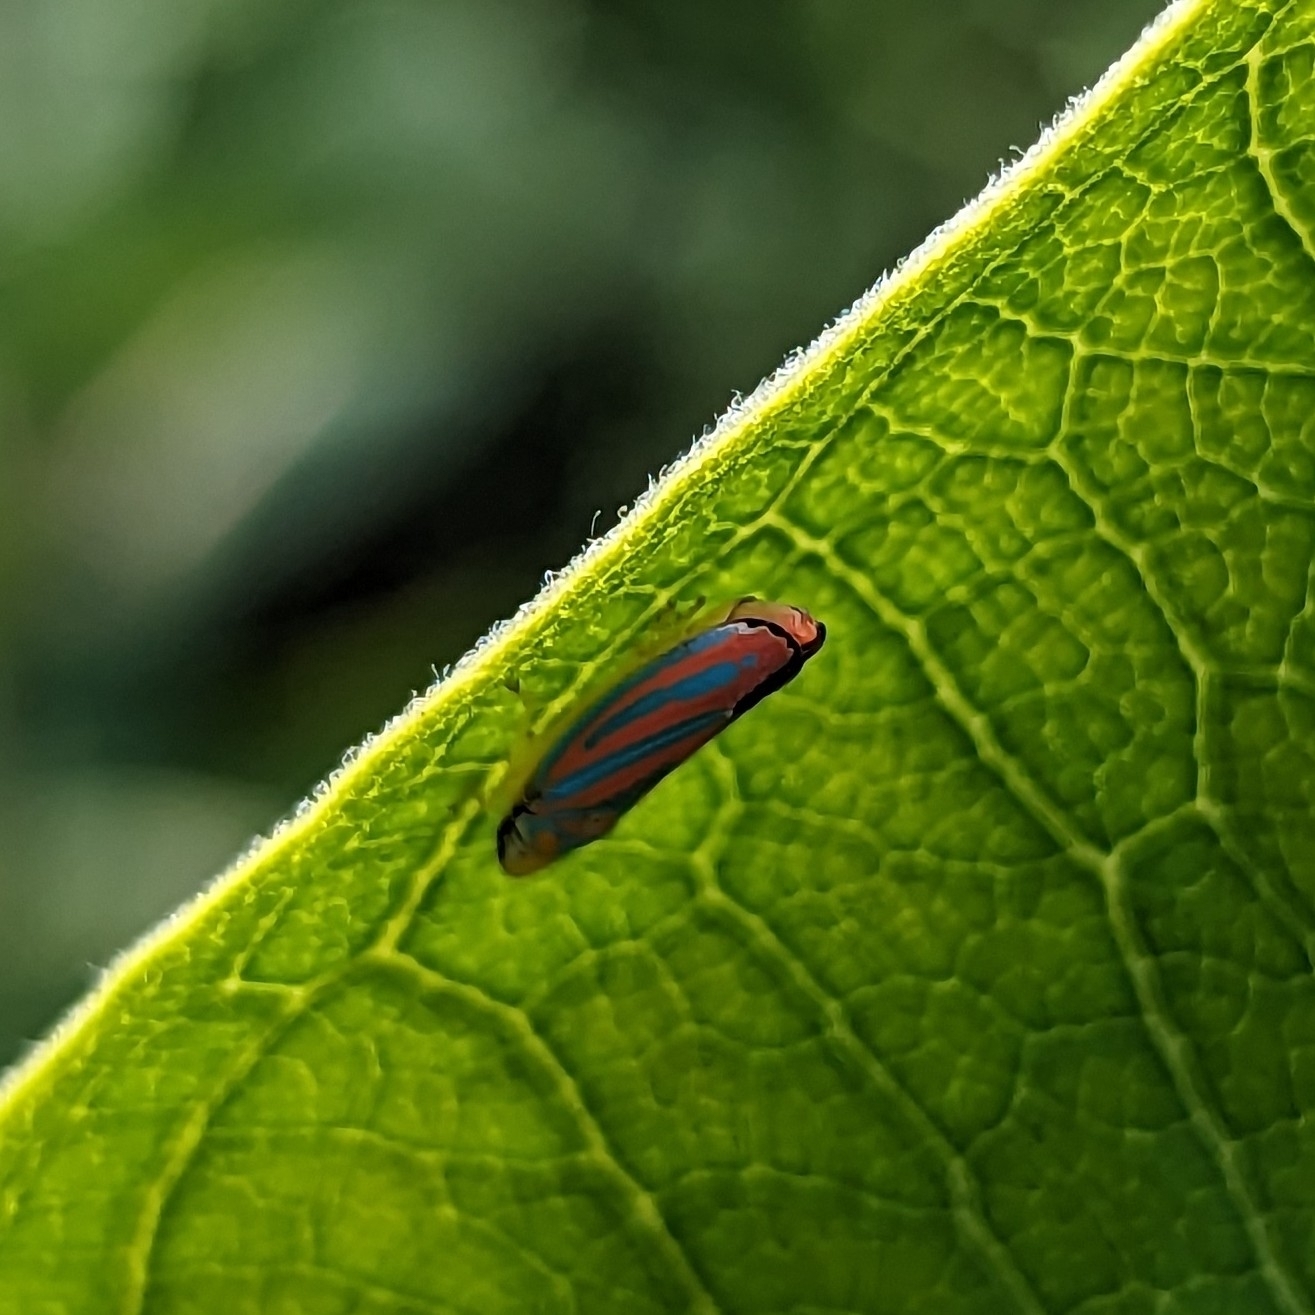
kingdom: Animalia
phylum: Arthropoda
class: Insecta
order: Hemiptera
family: Cicadellidae
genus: Graphocephala
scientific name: Graphocephala coccinea
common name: Candy-striped leafhopper
